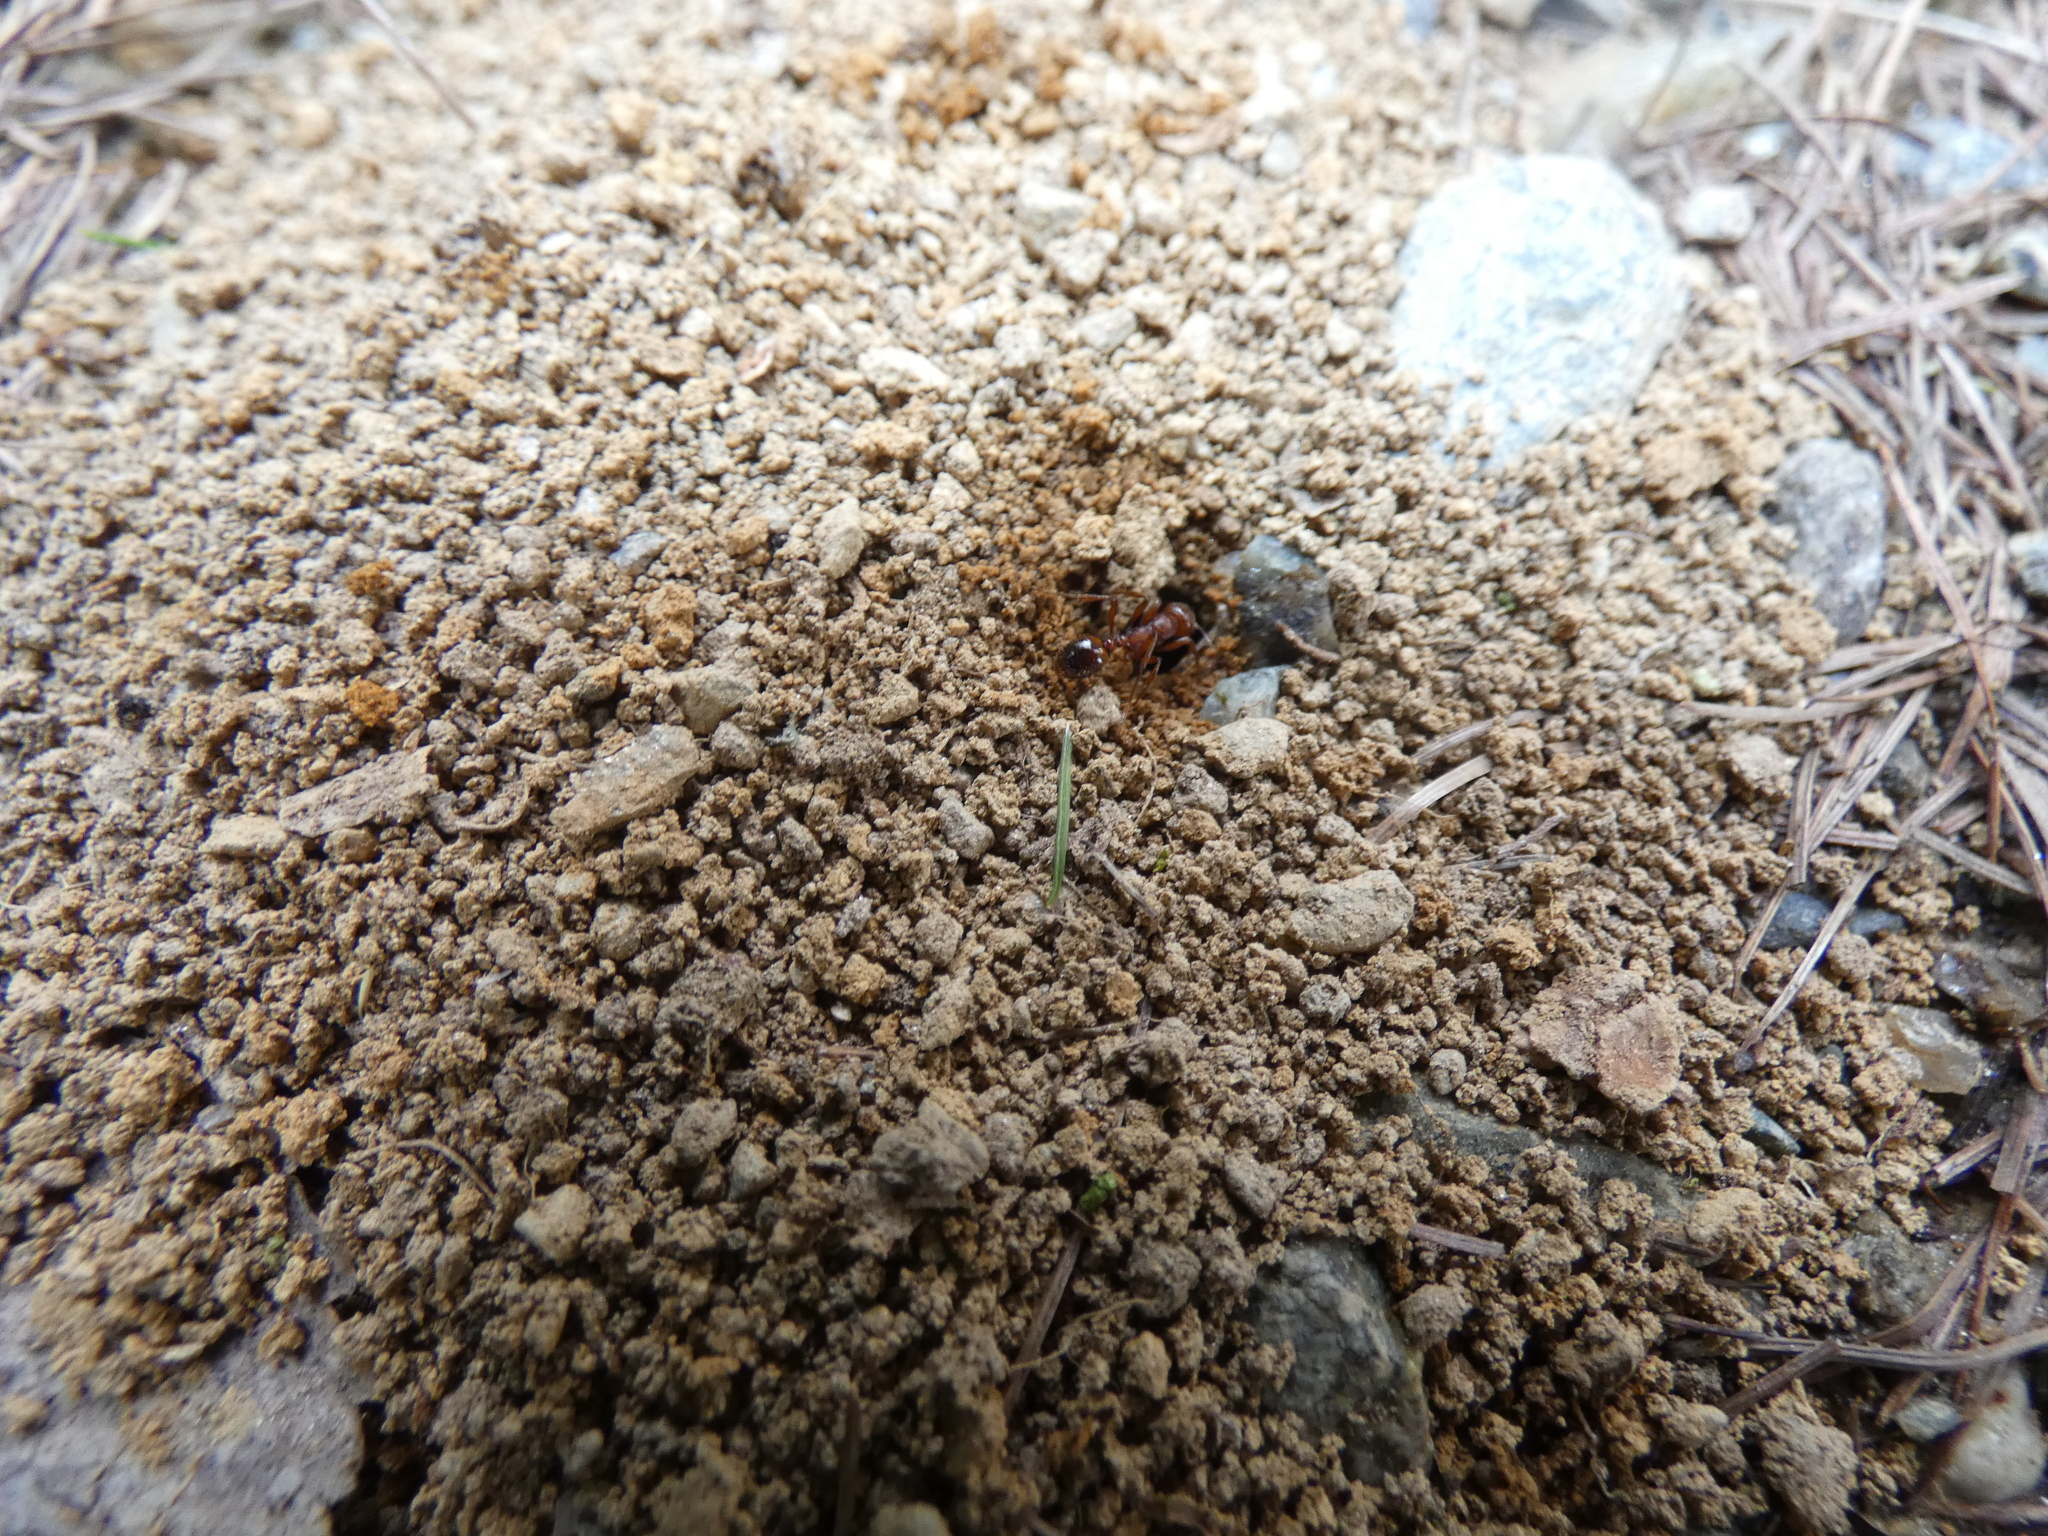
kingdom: Animalia
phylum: Arthropoda
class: Insecta
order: Hymenoptera
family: Formicidae
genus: Manica
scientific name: Manica rubida
